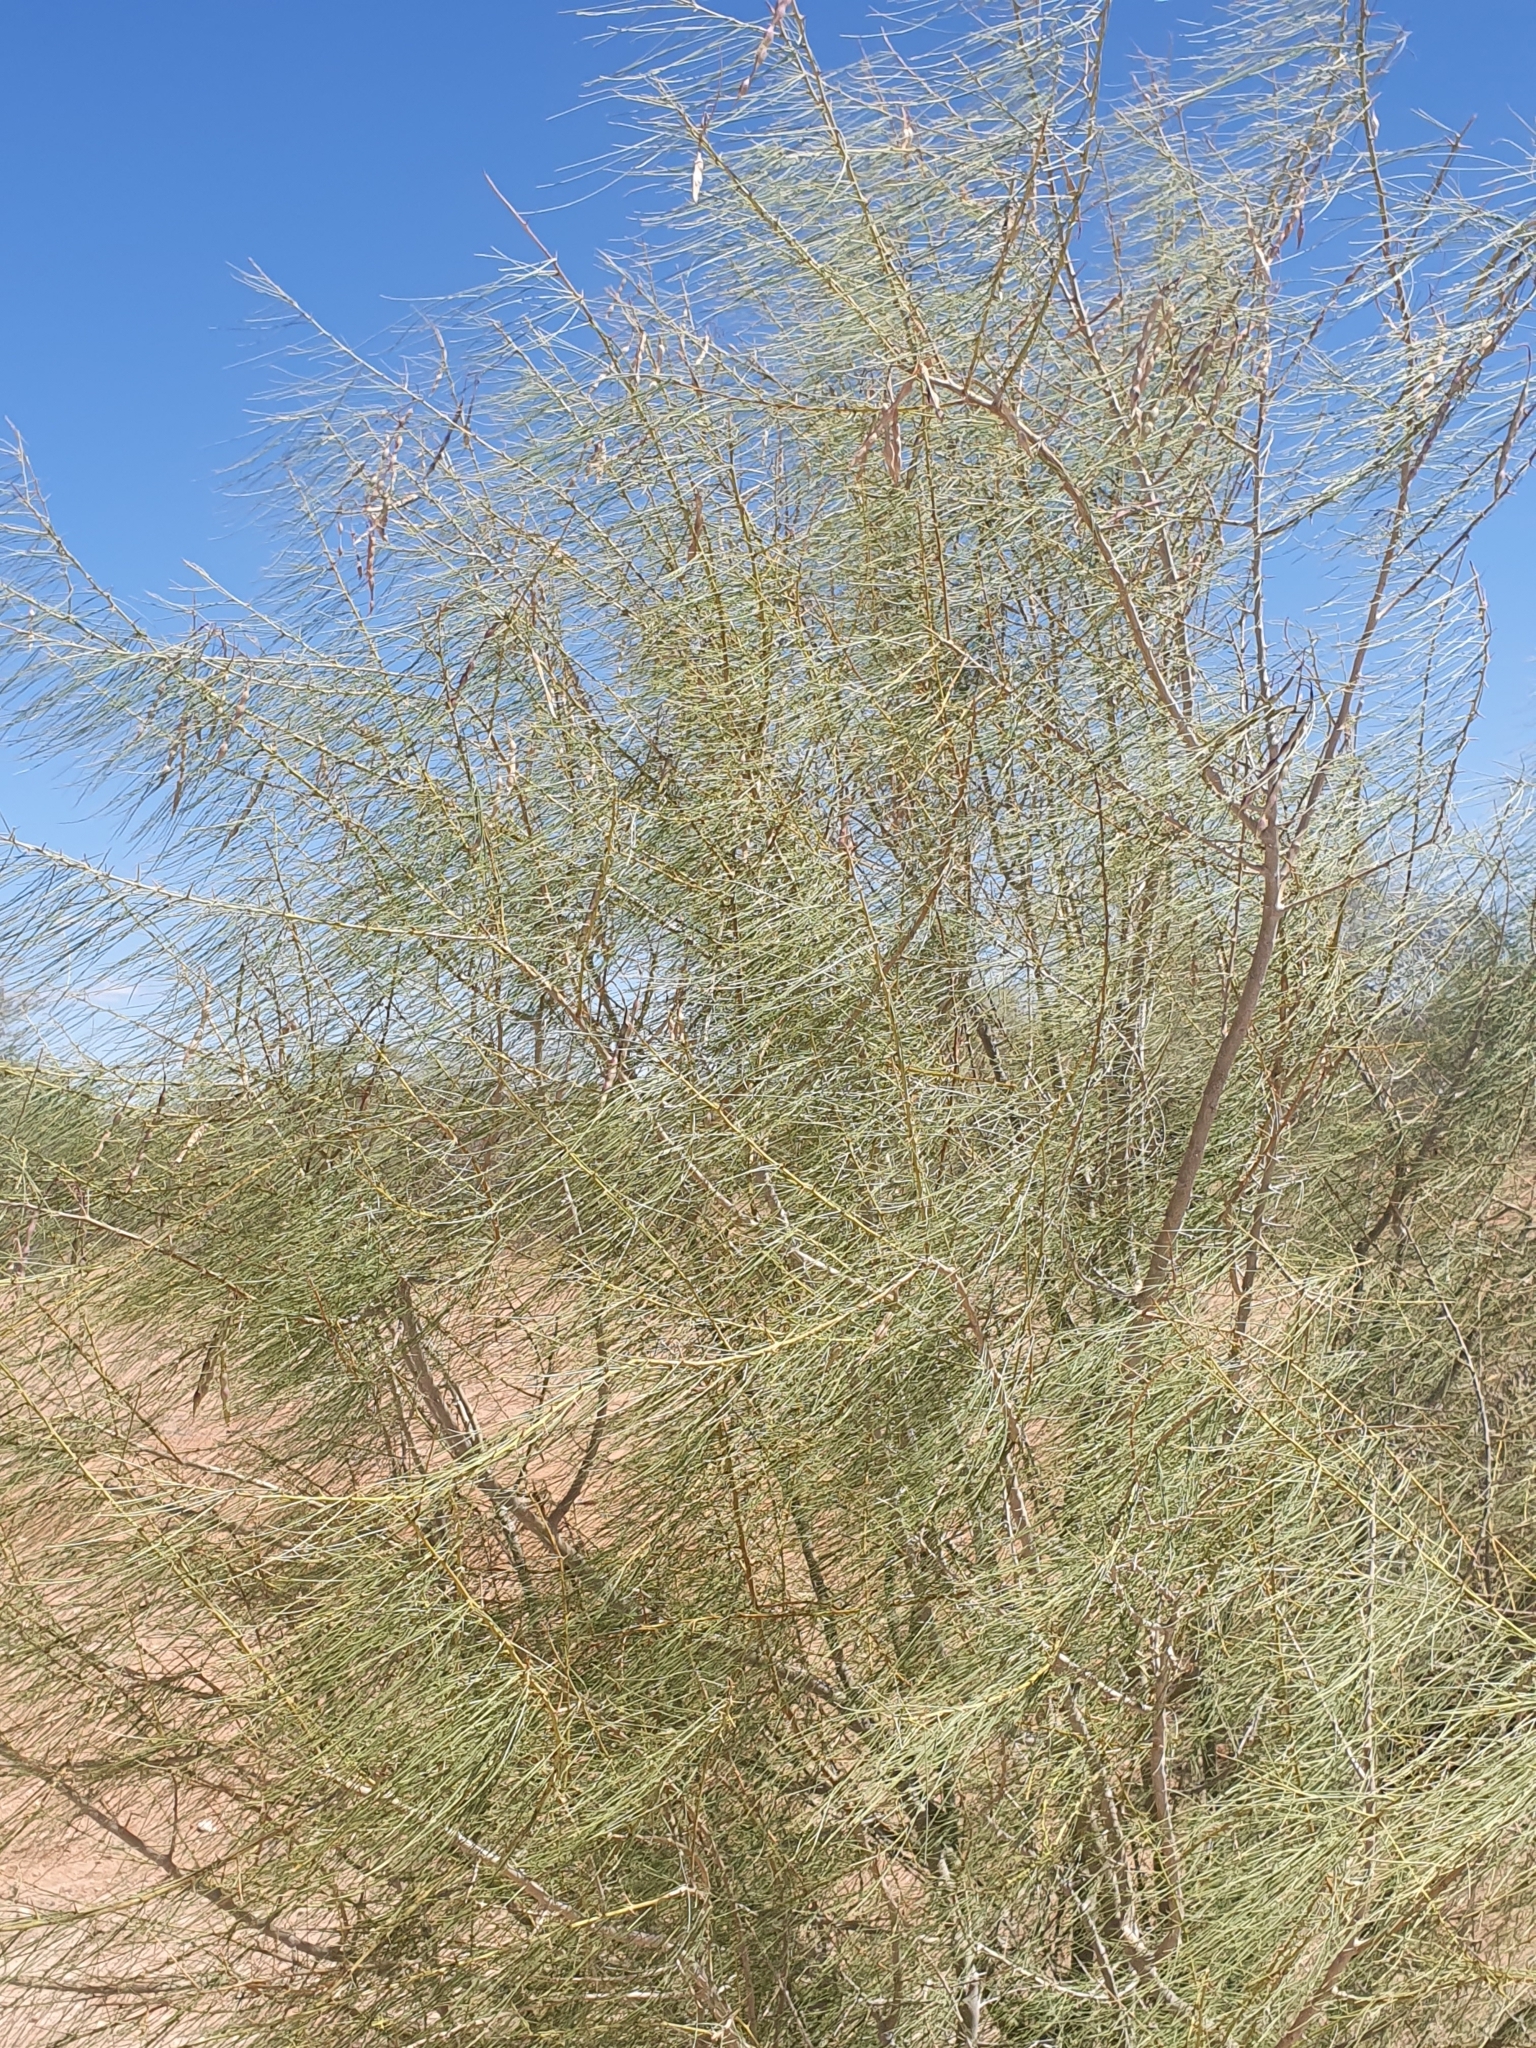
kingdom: Plantae
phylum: Tracheophyta
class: Magnoliopsida
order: Fabales
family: Fabaceae
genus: Parkinsonia
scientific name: Parkinsonia africana
